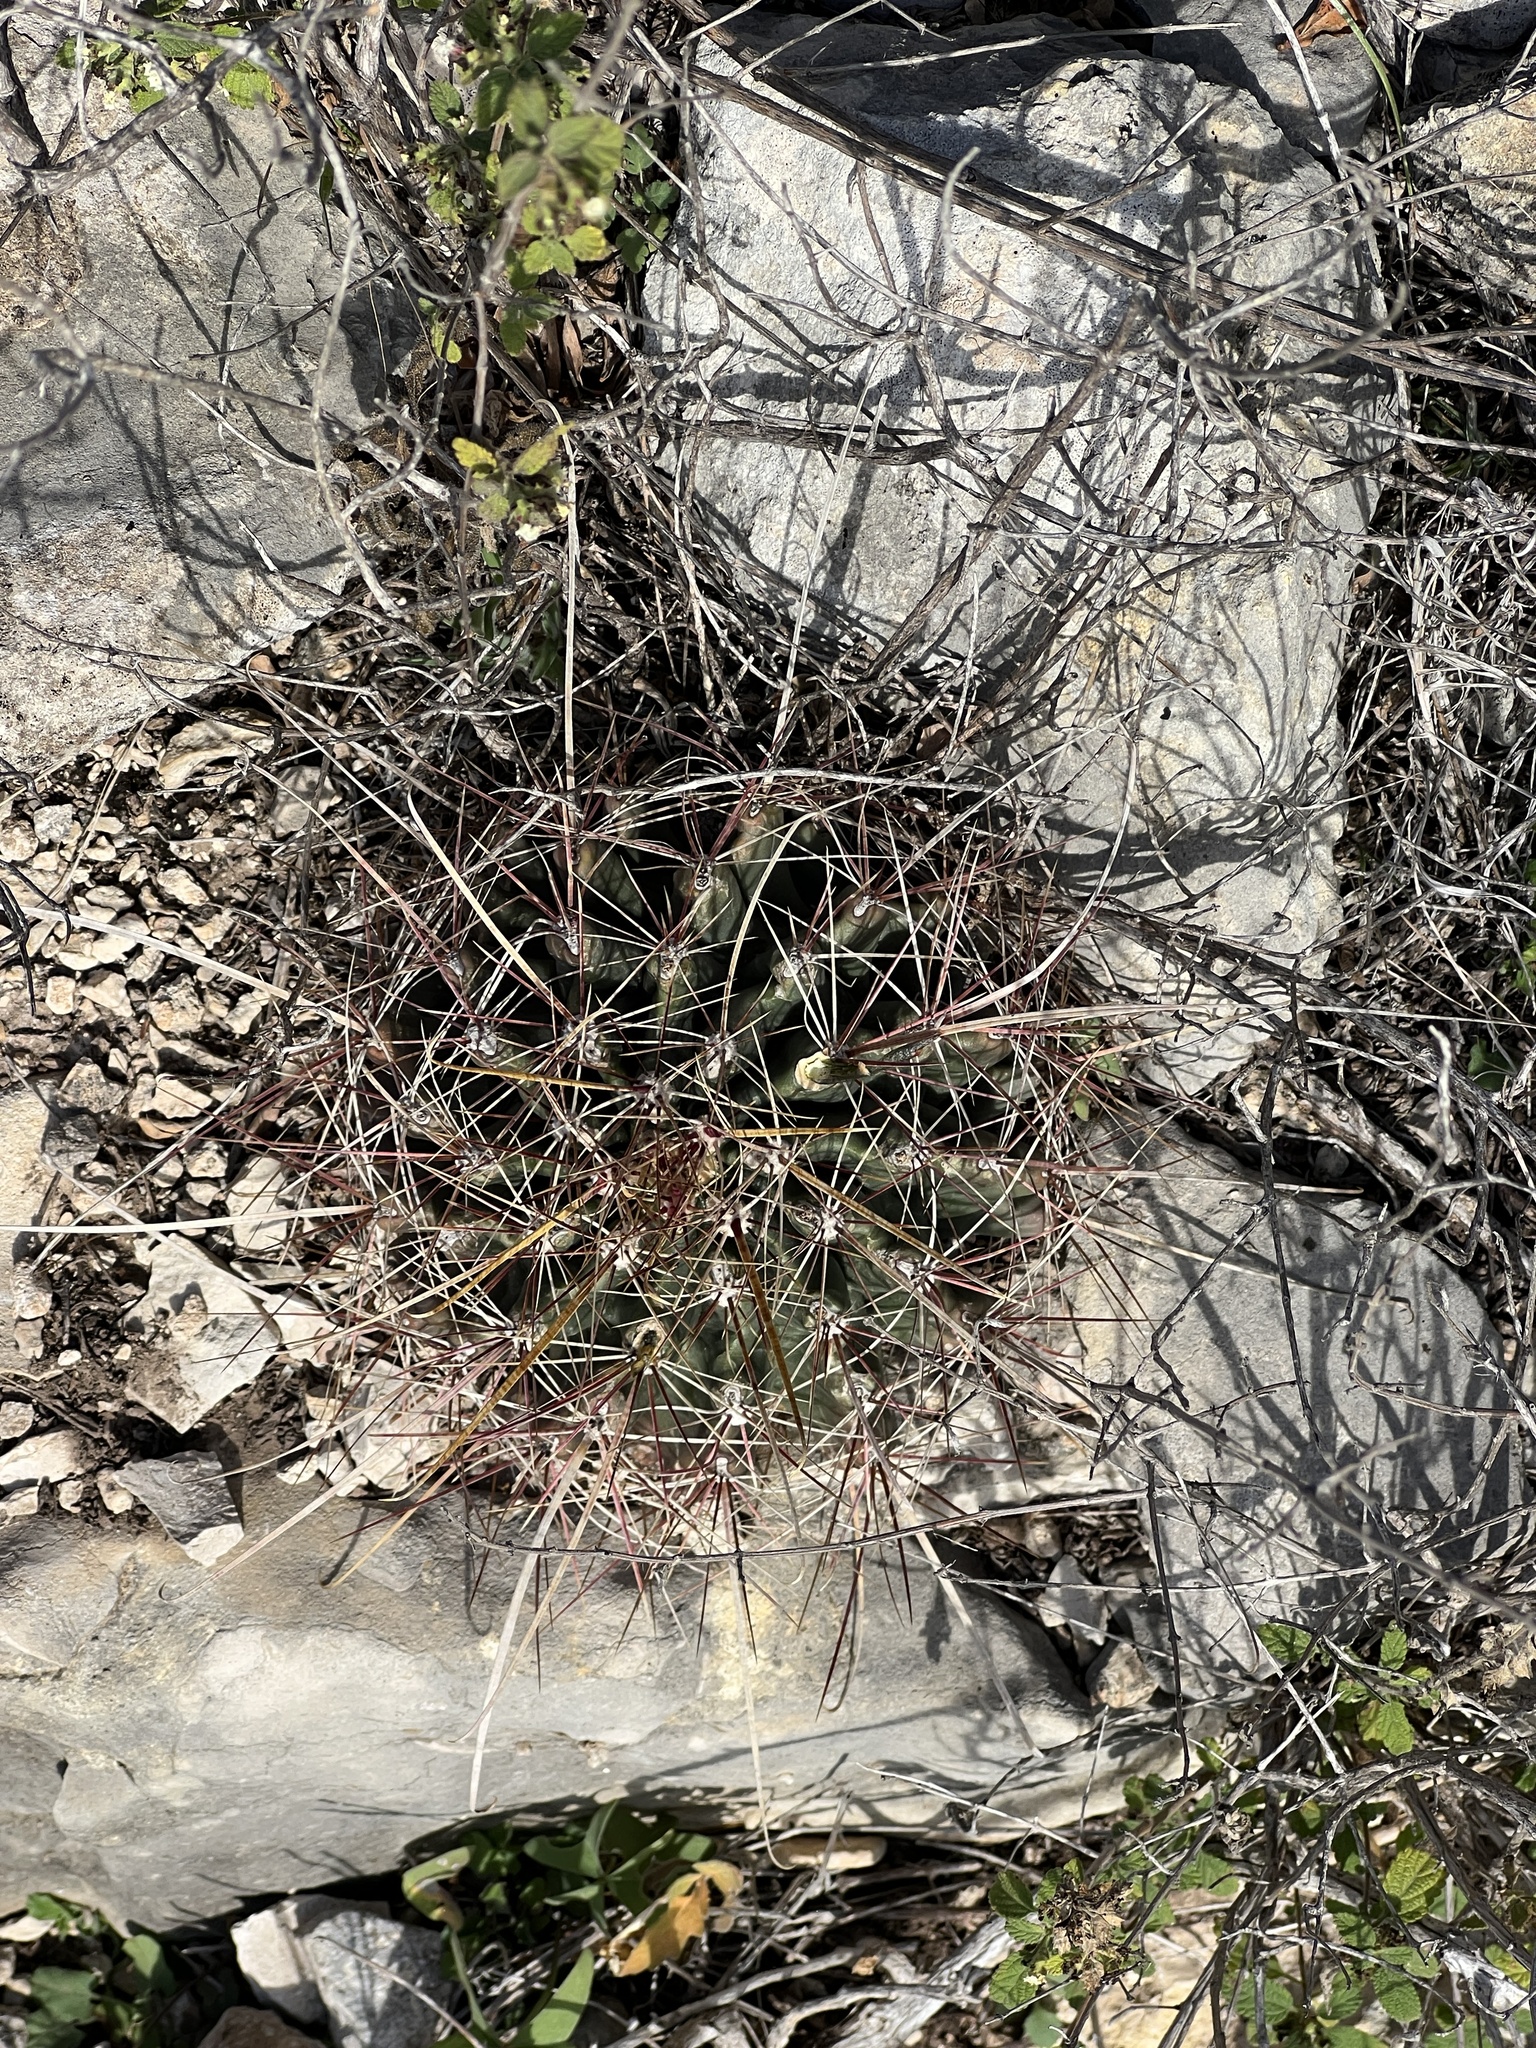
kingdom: Plantae
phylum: Tracheophyta
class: Magnoliopsida
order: Caryophyllales
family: Cactaceae
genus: Bisnaga
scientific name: Bisnaga hamatacantha
